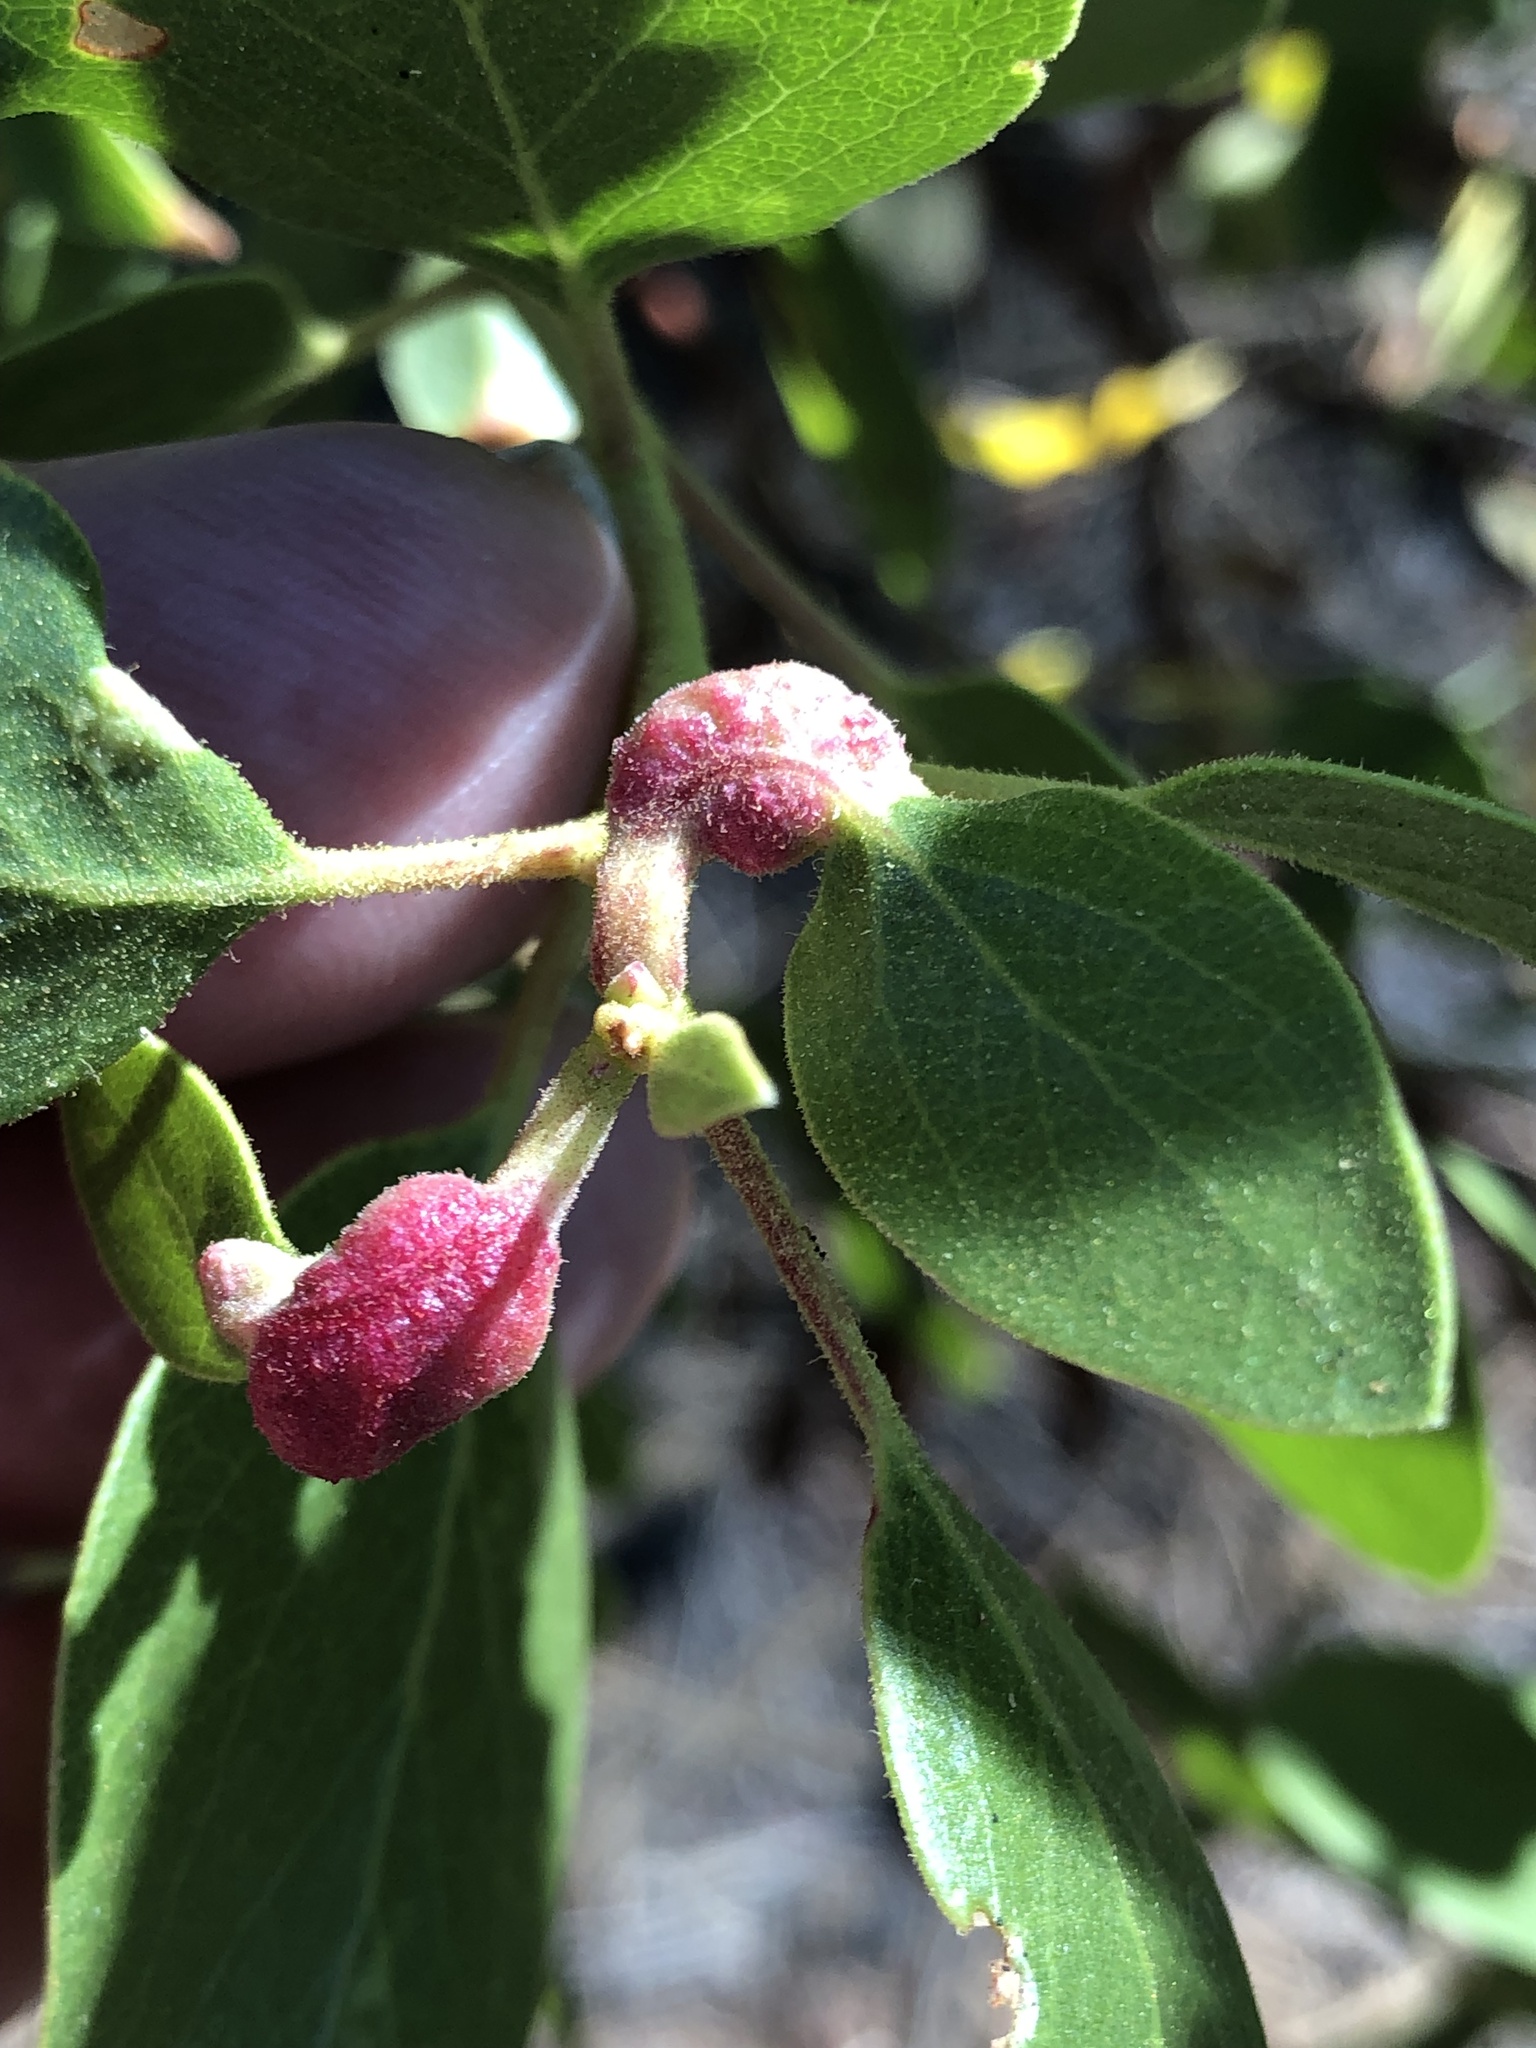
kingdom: Animalia
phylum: Arthropoda
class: Insecta
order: Hemiptera
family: Aphididae
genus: Tamalia
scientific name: Tamalia coweni
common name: Manzanita leafgall aphid
